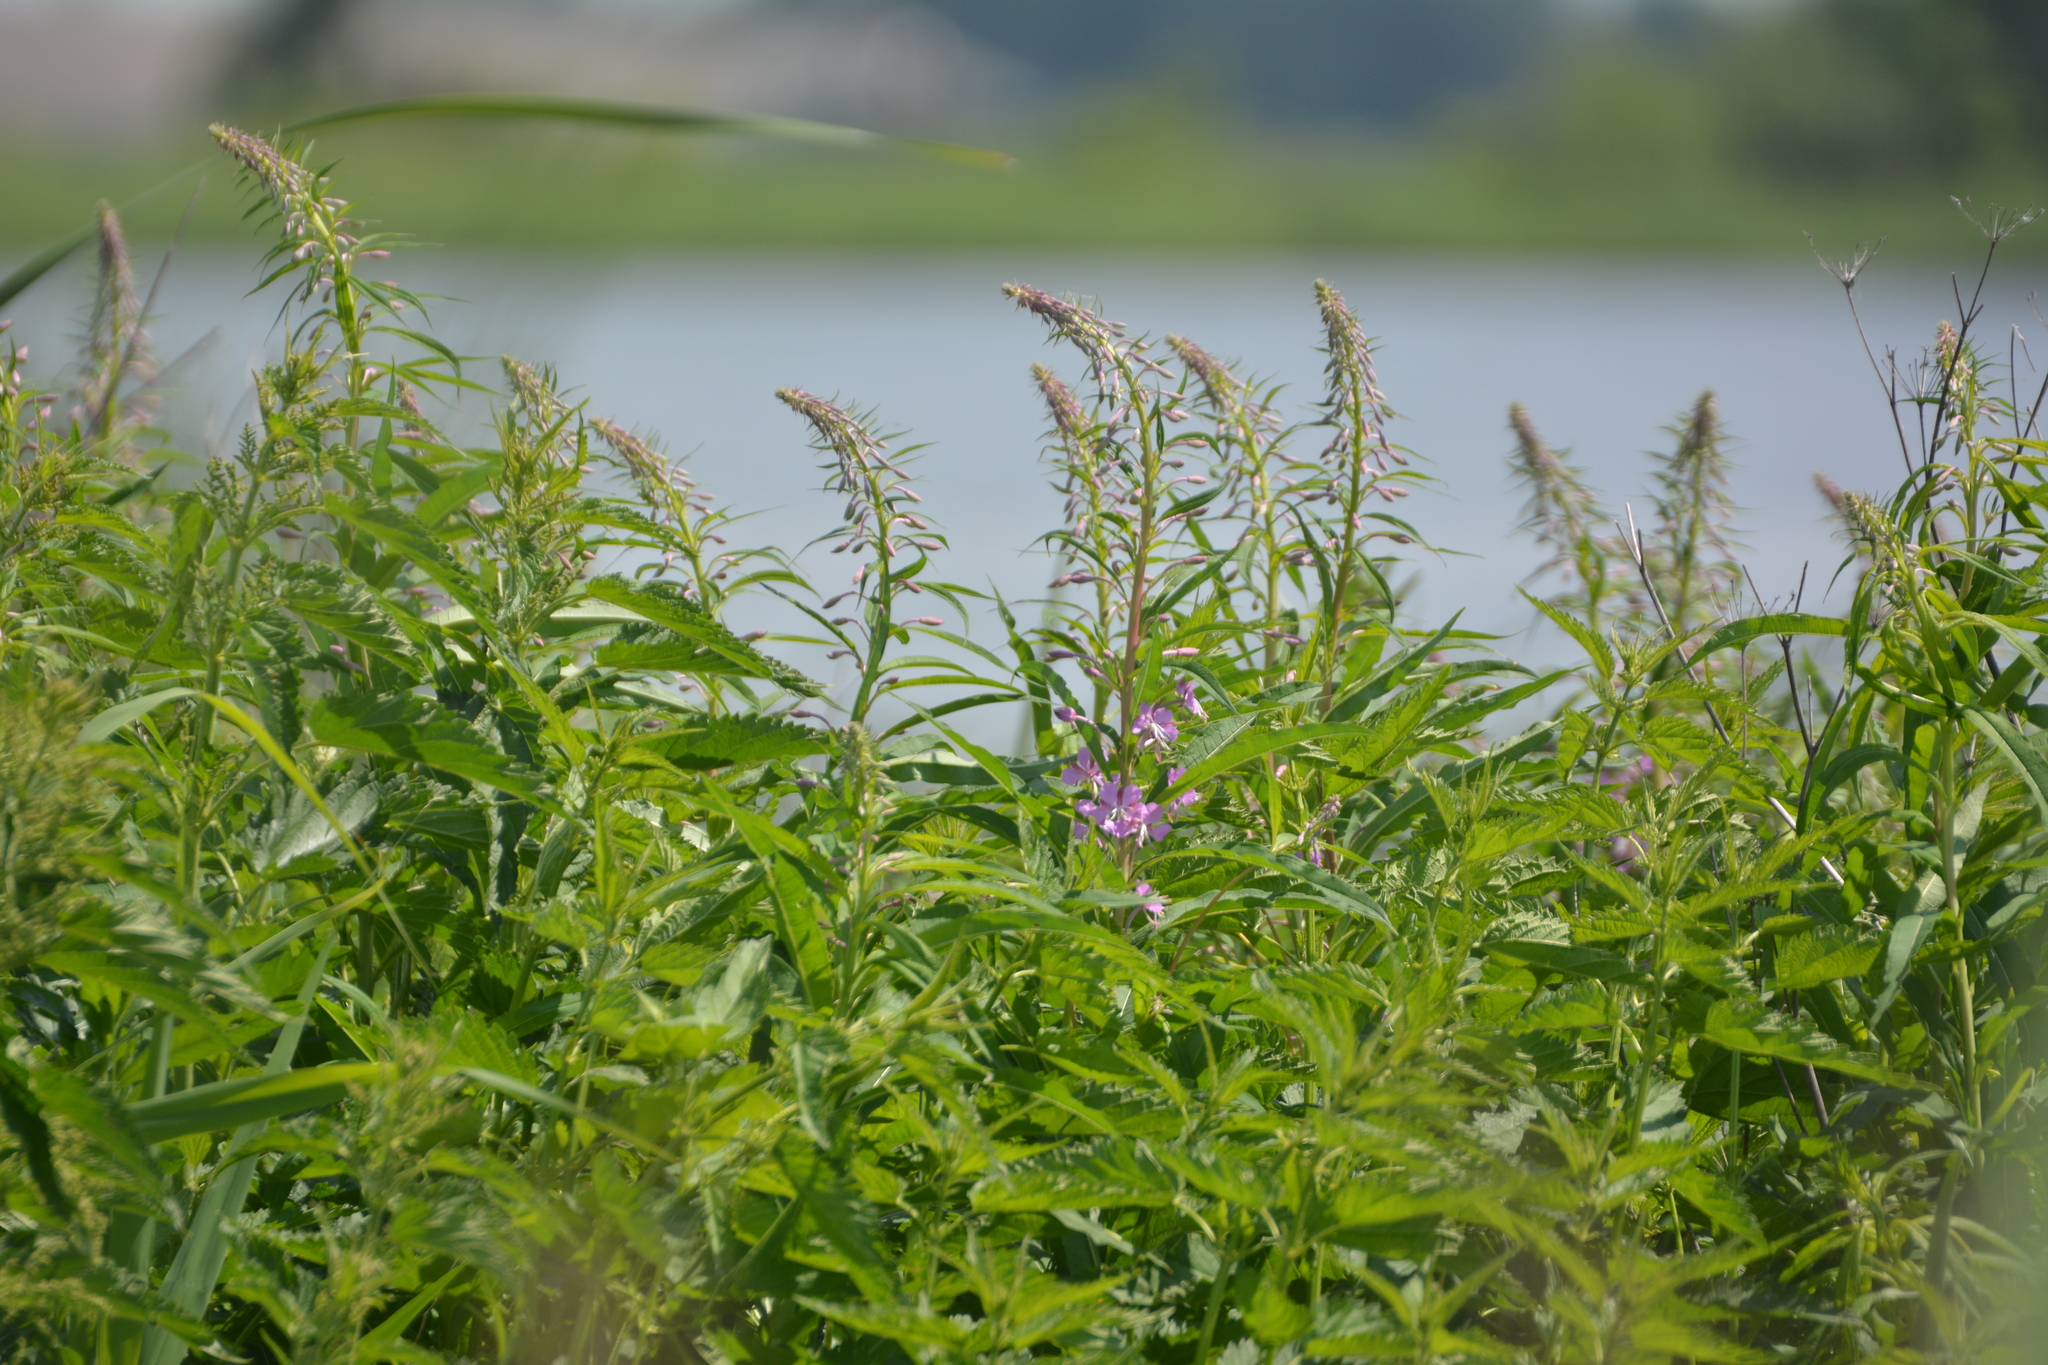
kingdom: Plantae
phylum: Tracheophyta
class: Magnoliopsida
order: Myrtales
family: Onagraceae
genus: Chamaenerion
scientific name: Chamaenerion angustifolium
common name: Fireweed
